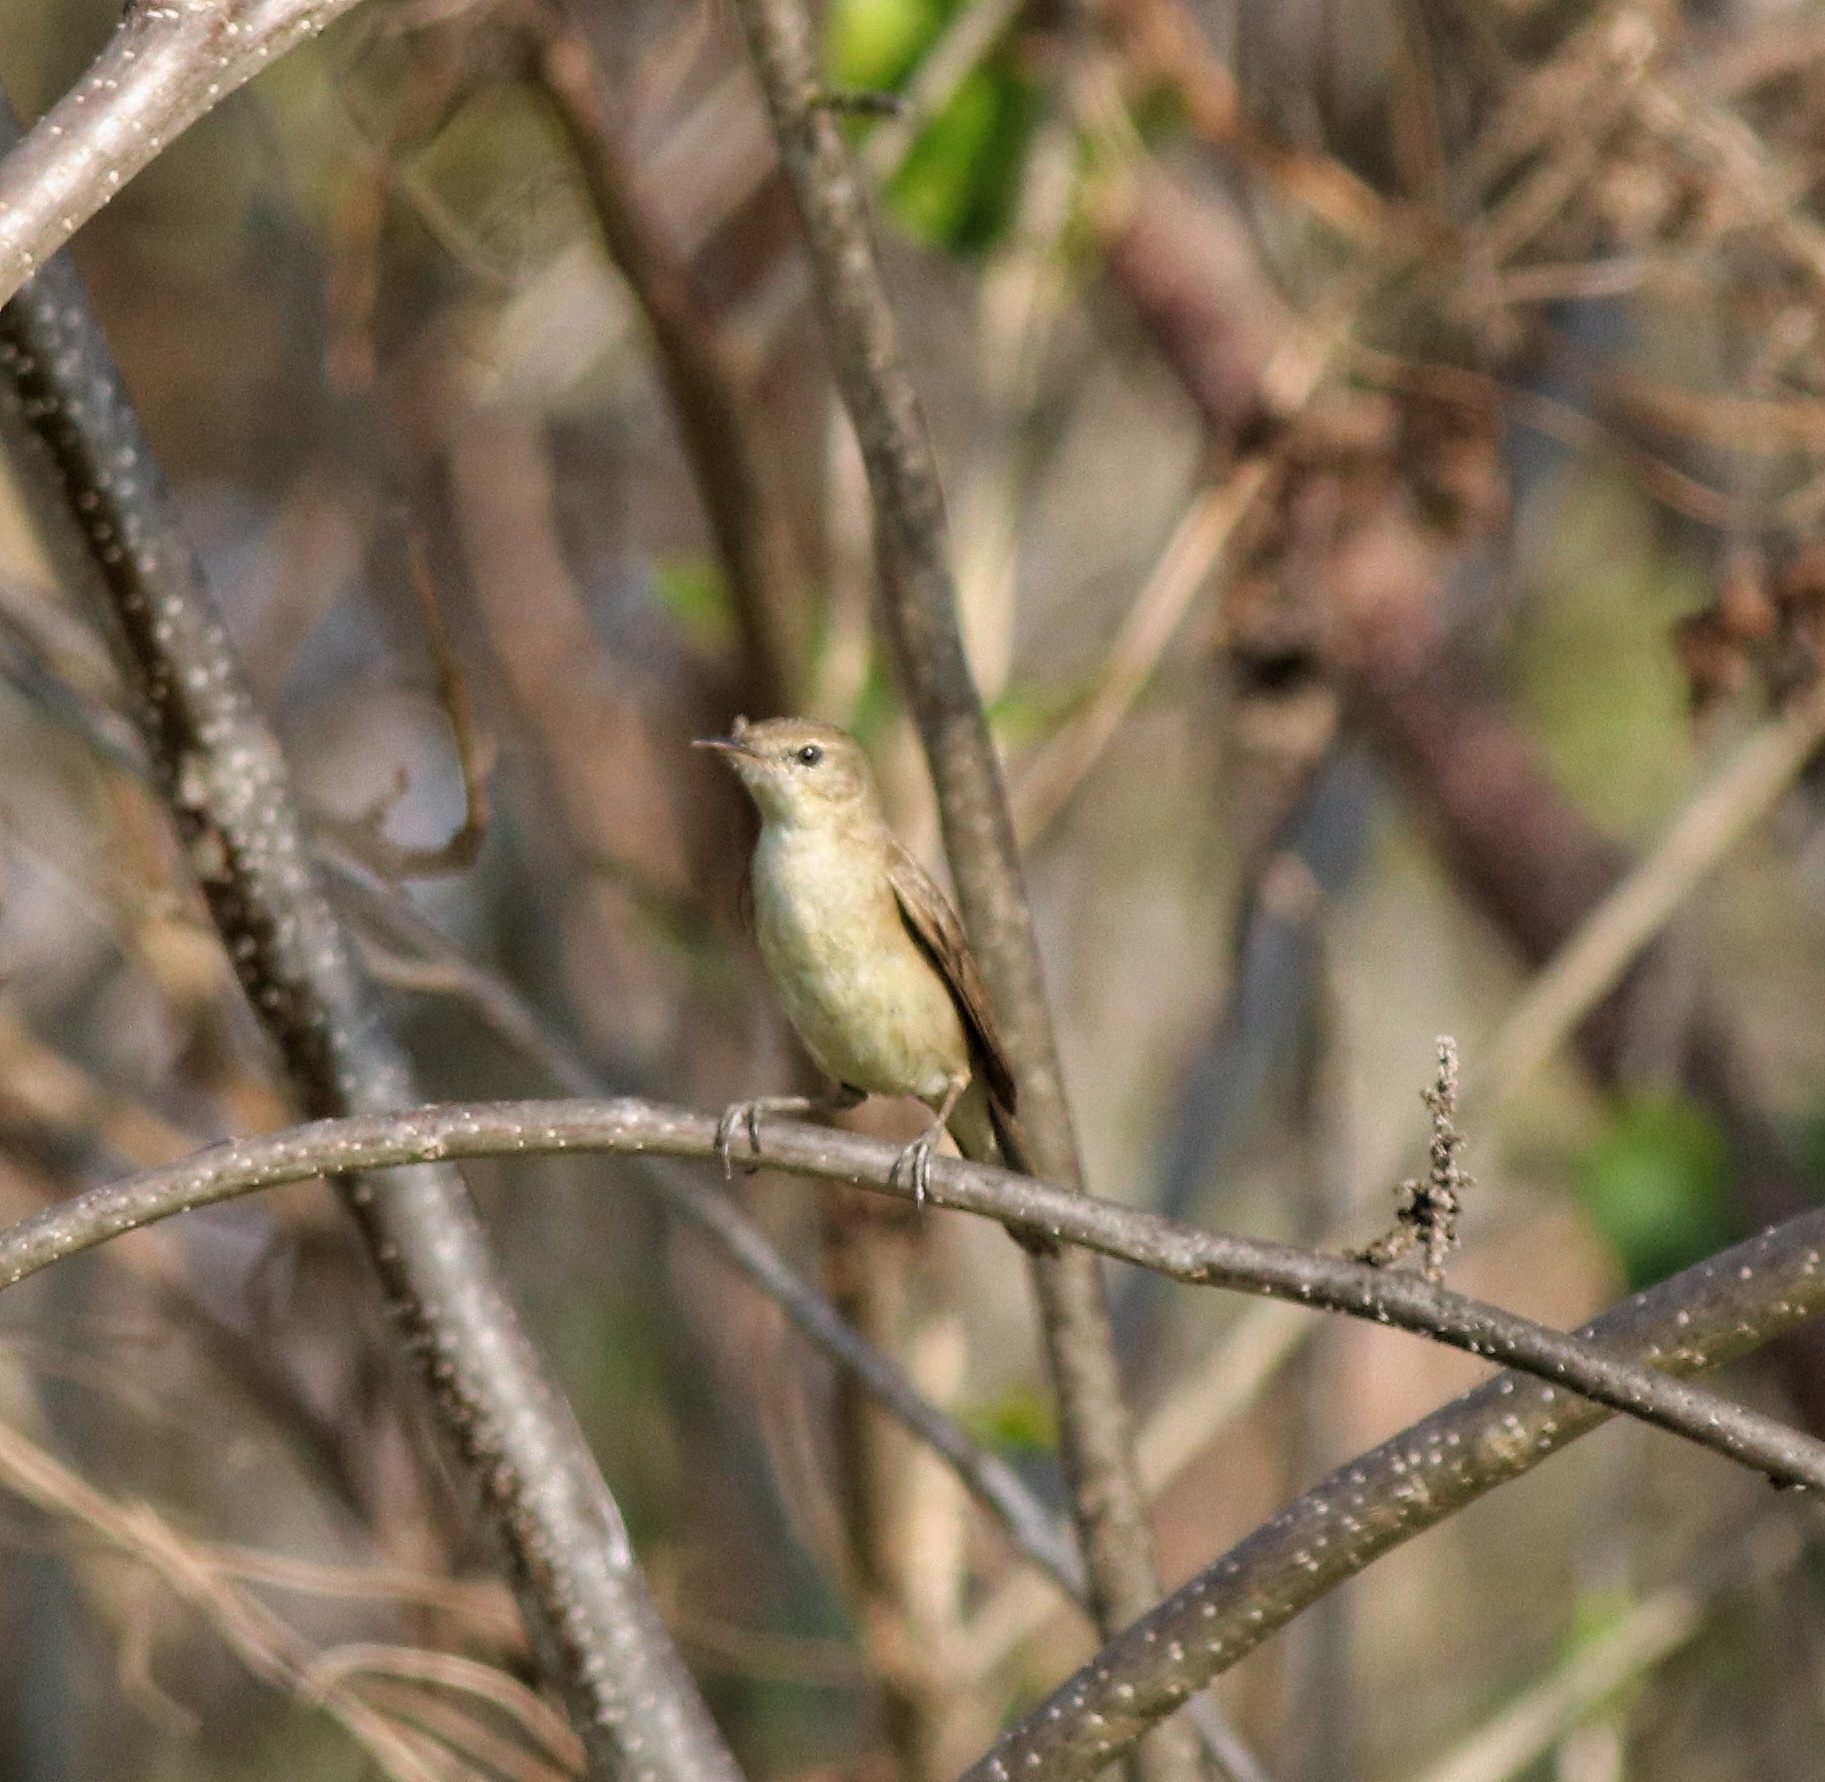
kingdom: Animalia
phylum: Chordata
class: Aves
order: Passeriformes
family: Acrocephalidae
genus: Acrocephalus
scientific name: Acrocephalus dumetorum
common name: Blyth's reed warbler
